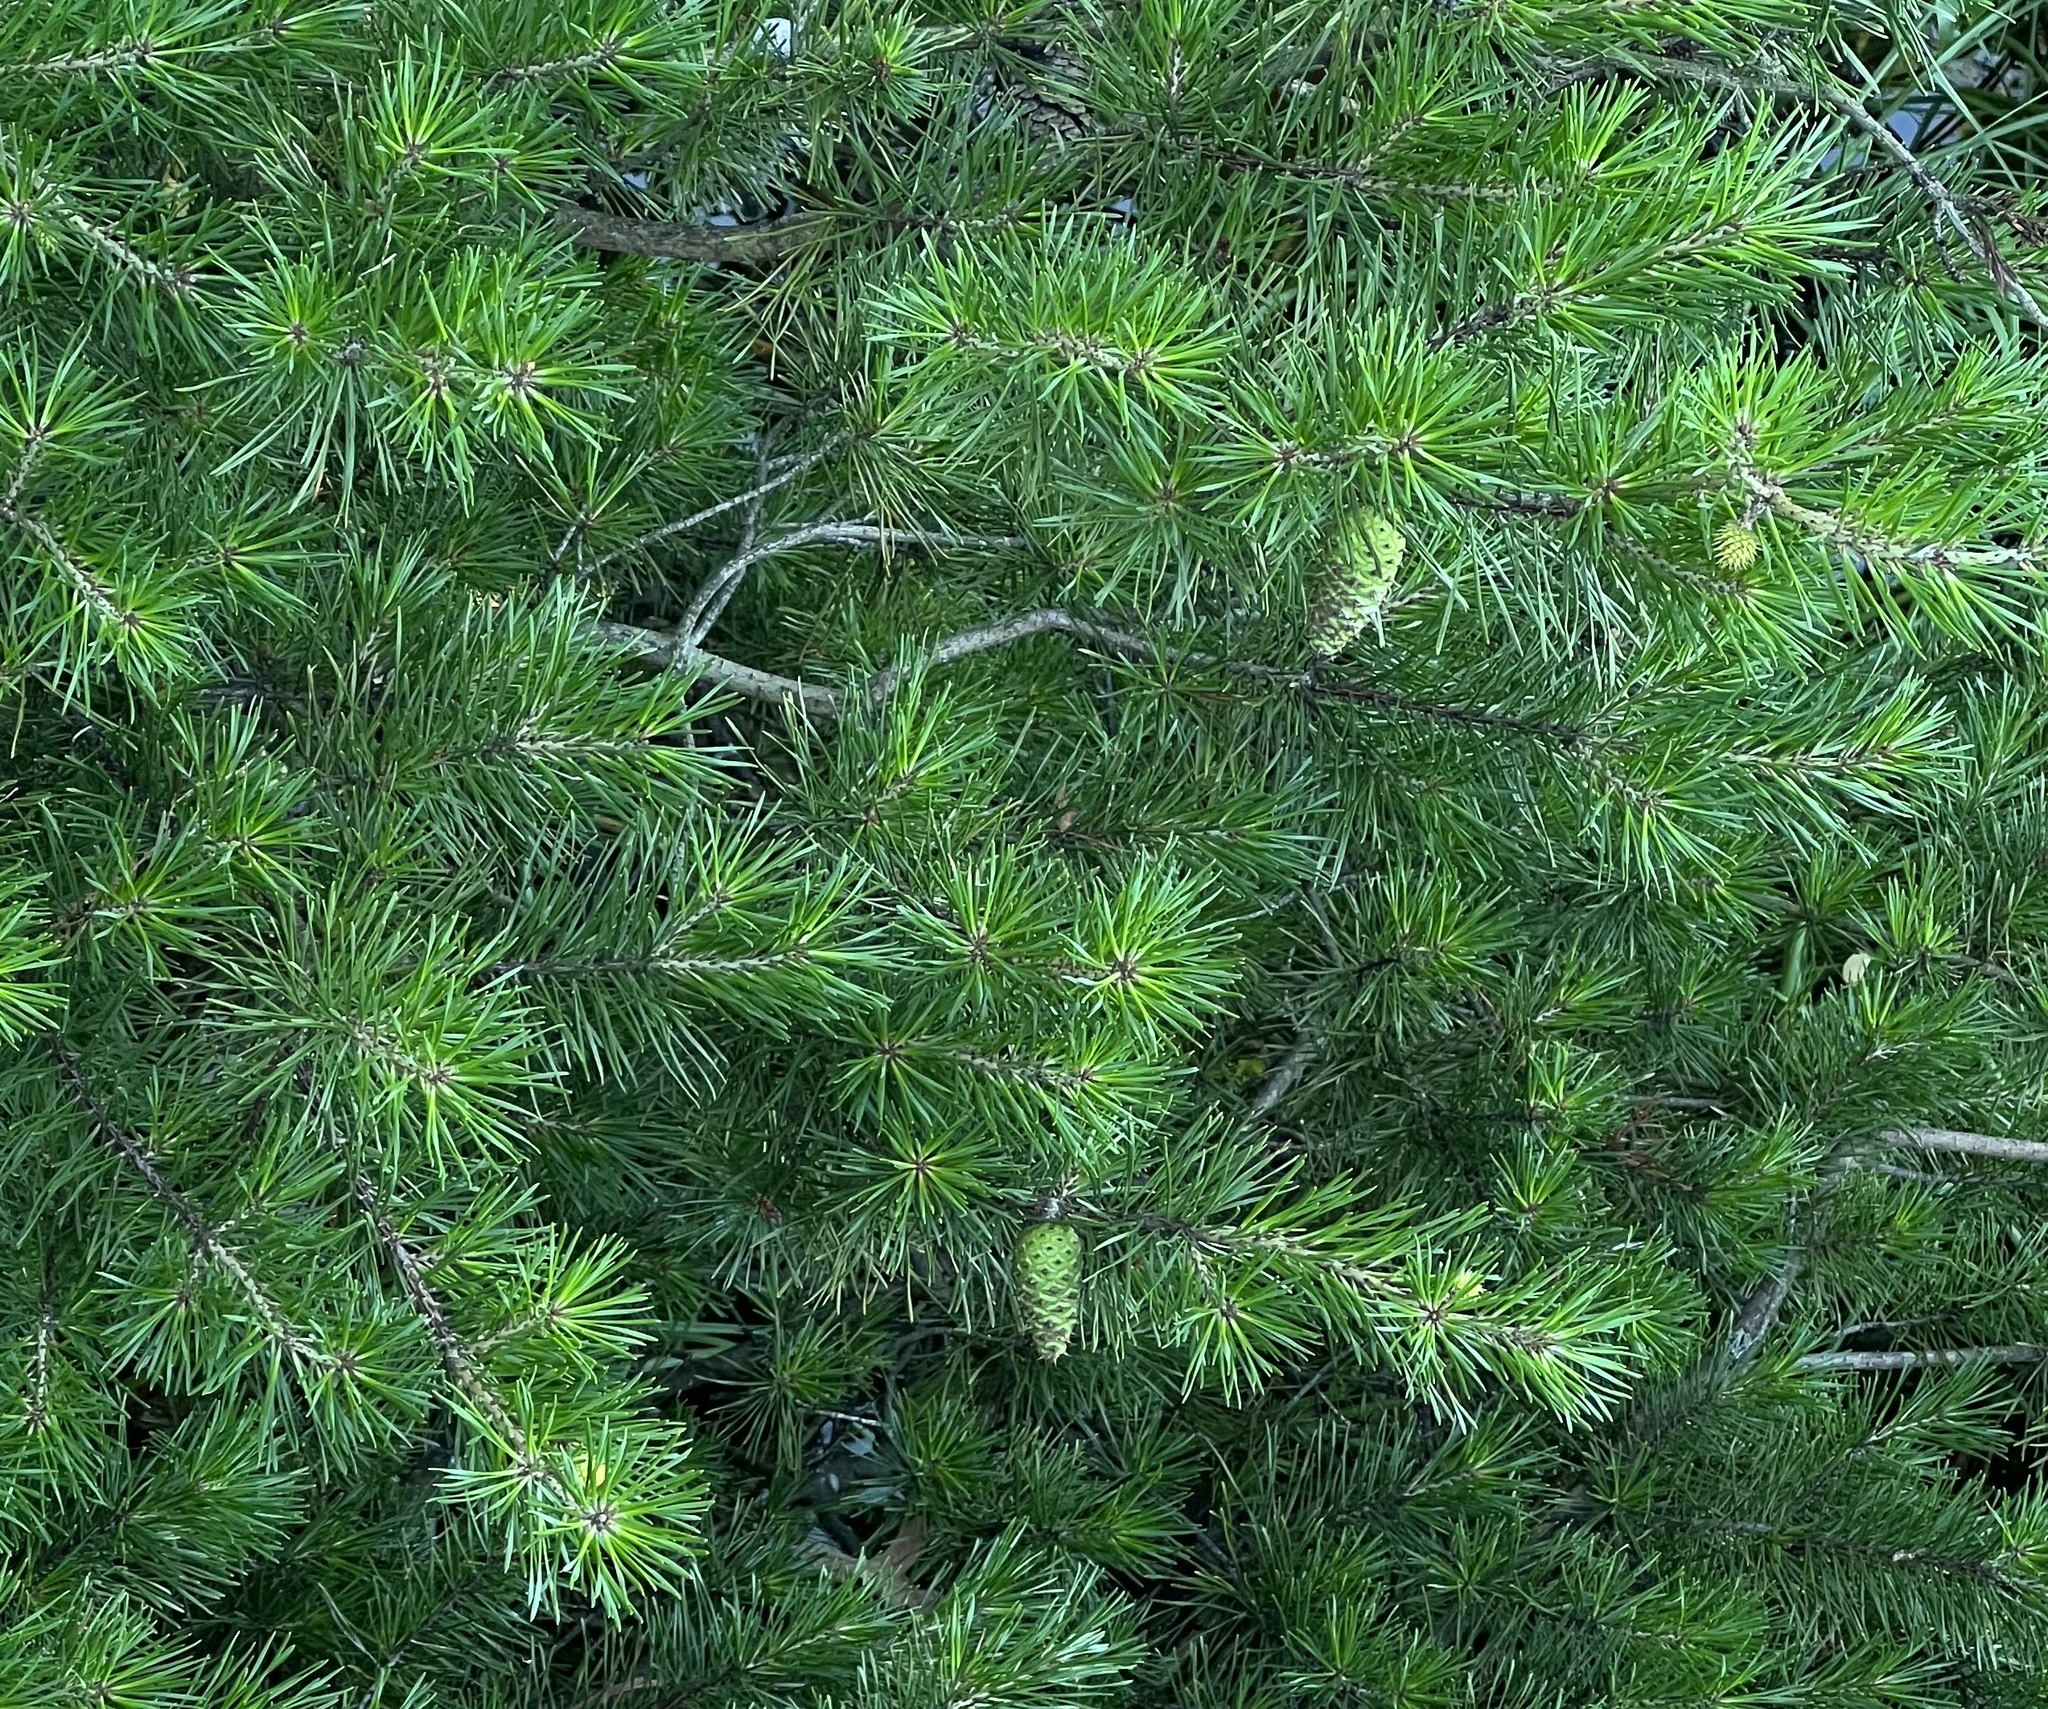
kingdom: Plantae
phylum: Tracheophyta
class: Pinopsida
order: Pinales
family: Pinaceae
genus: Pinus
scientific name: Pinus virginiana
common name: Scrub pine
